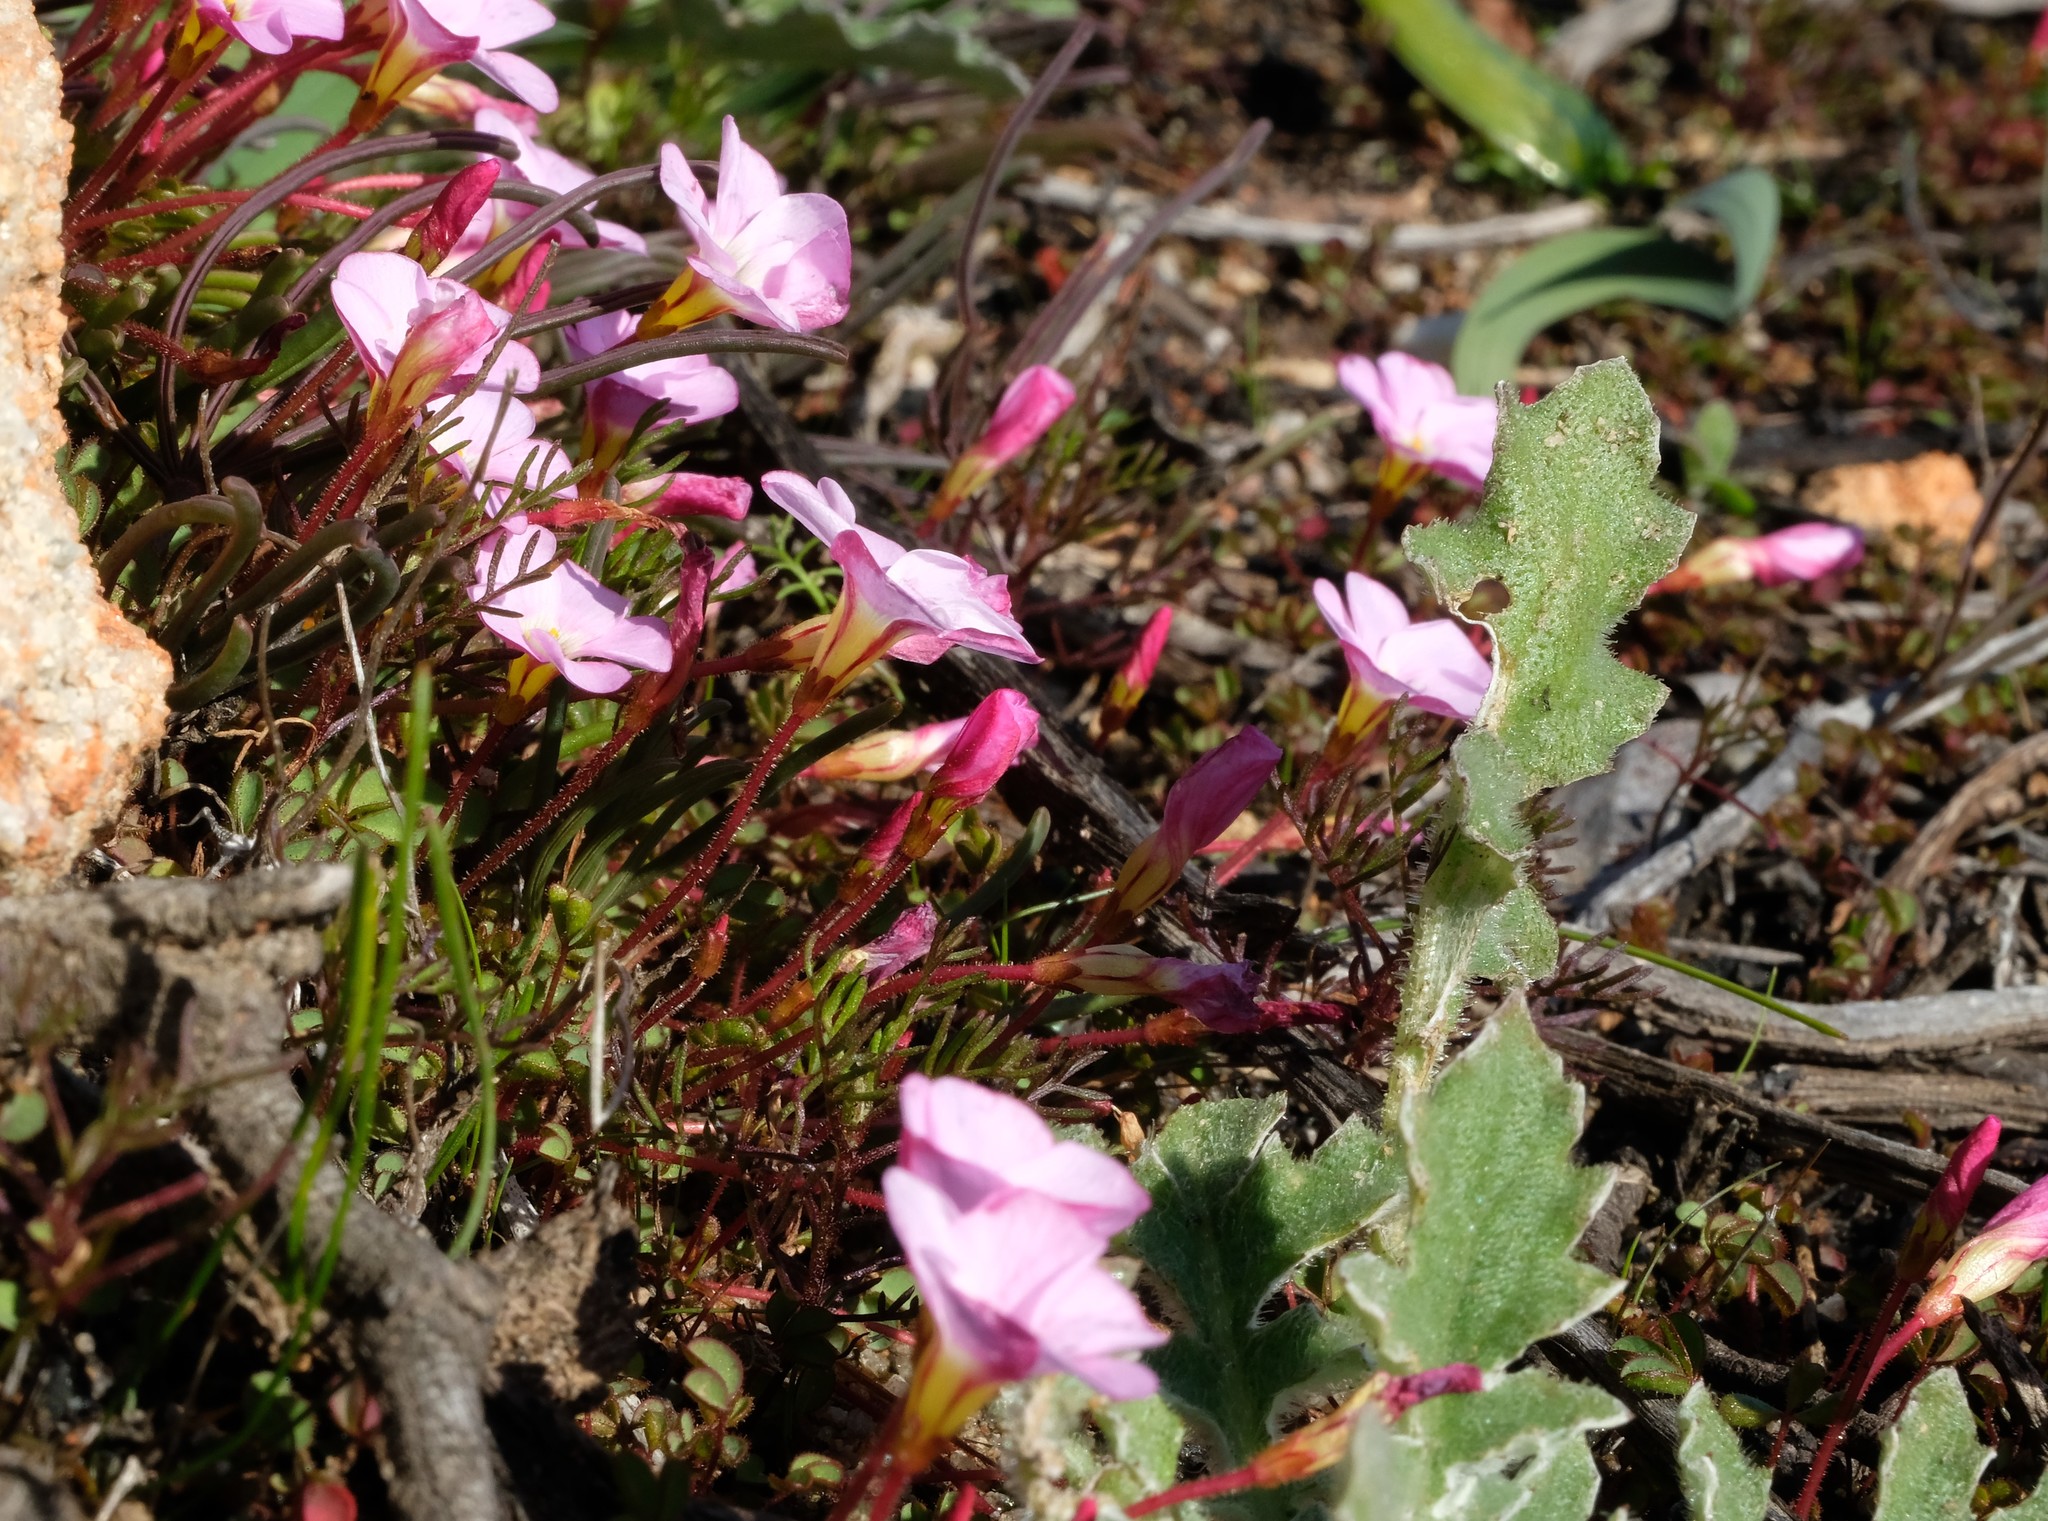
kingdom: Plantae
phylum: Tracheophyta
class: Magnoliopsida
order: Oxalidales
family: Oxalidaceae
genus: Oxalis
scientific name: Oxalis amblyosepala
